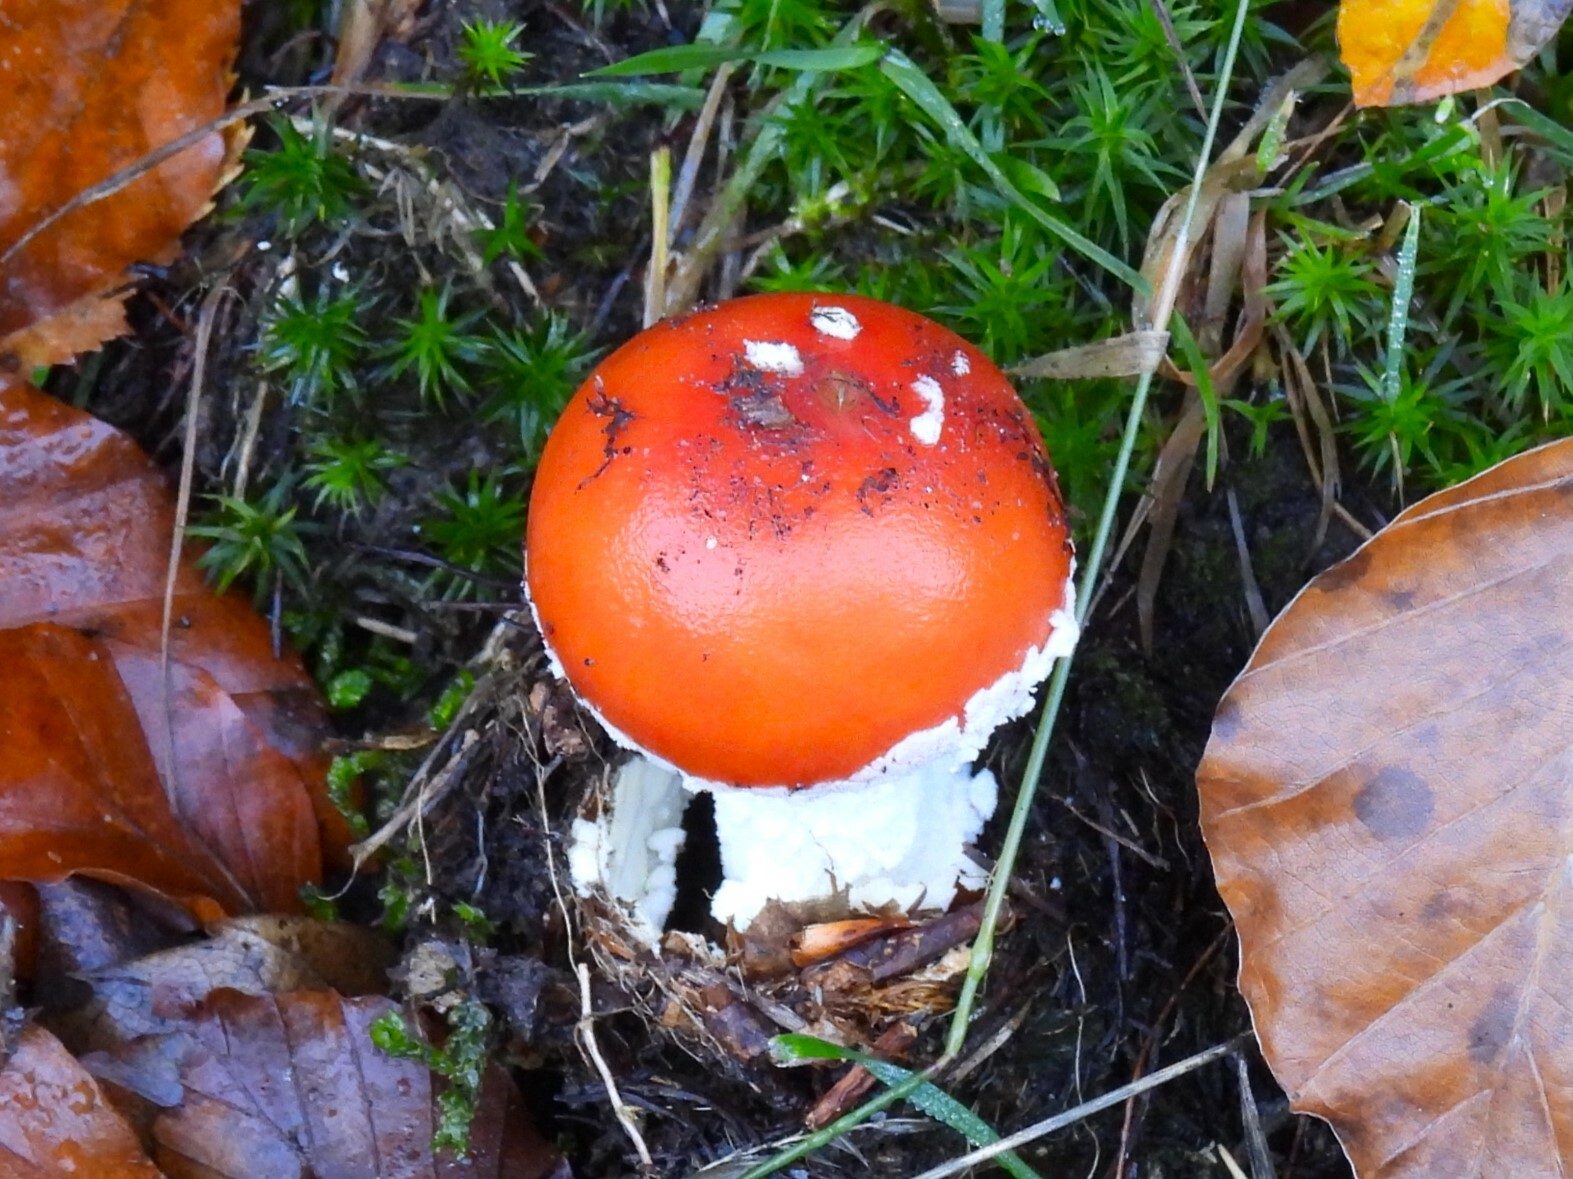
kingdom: Fungi
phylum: Basidiomycota
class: Agaricomycetes
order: Agaricales
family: Amanitaceae
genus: Amanita
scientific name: Amanita muscaria
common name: Fly agaric
